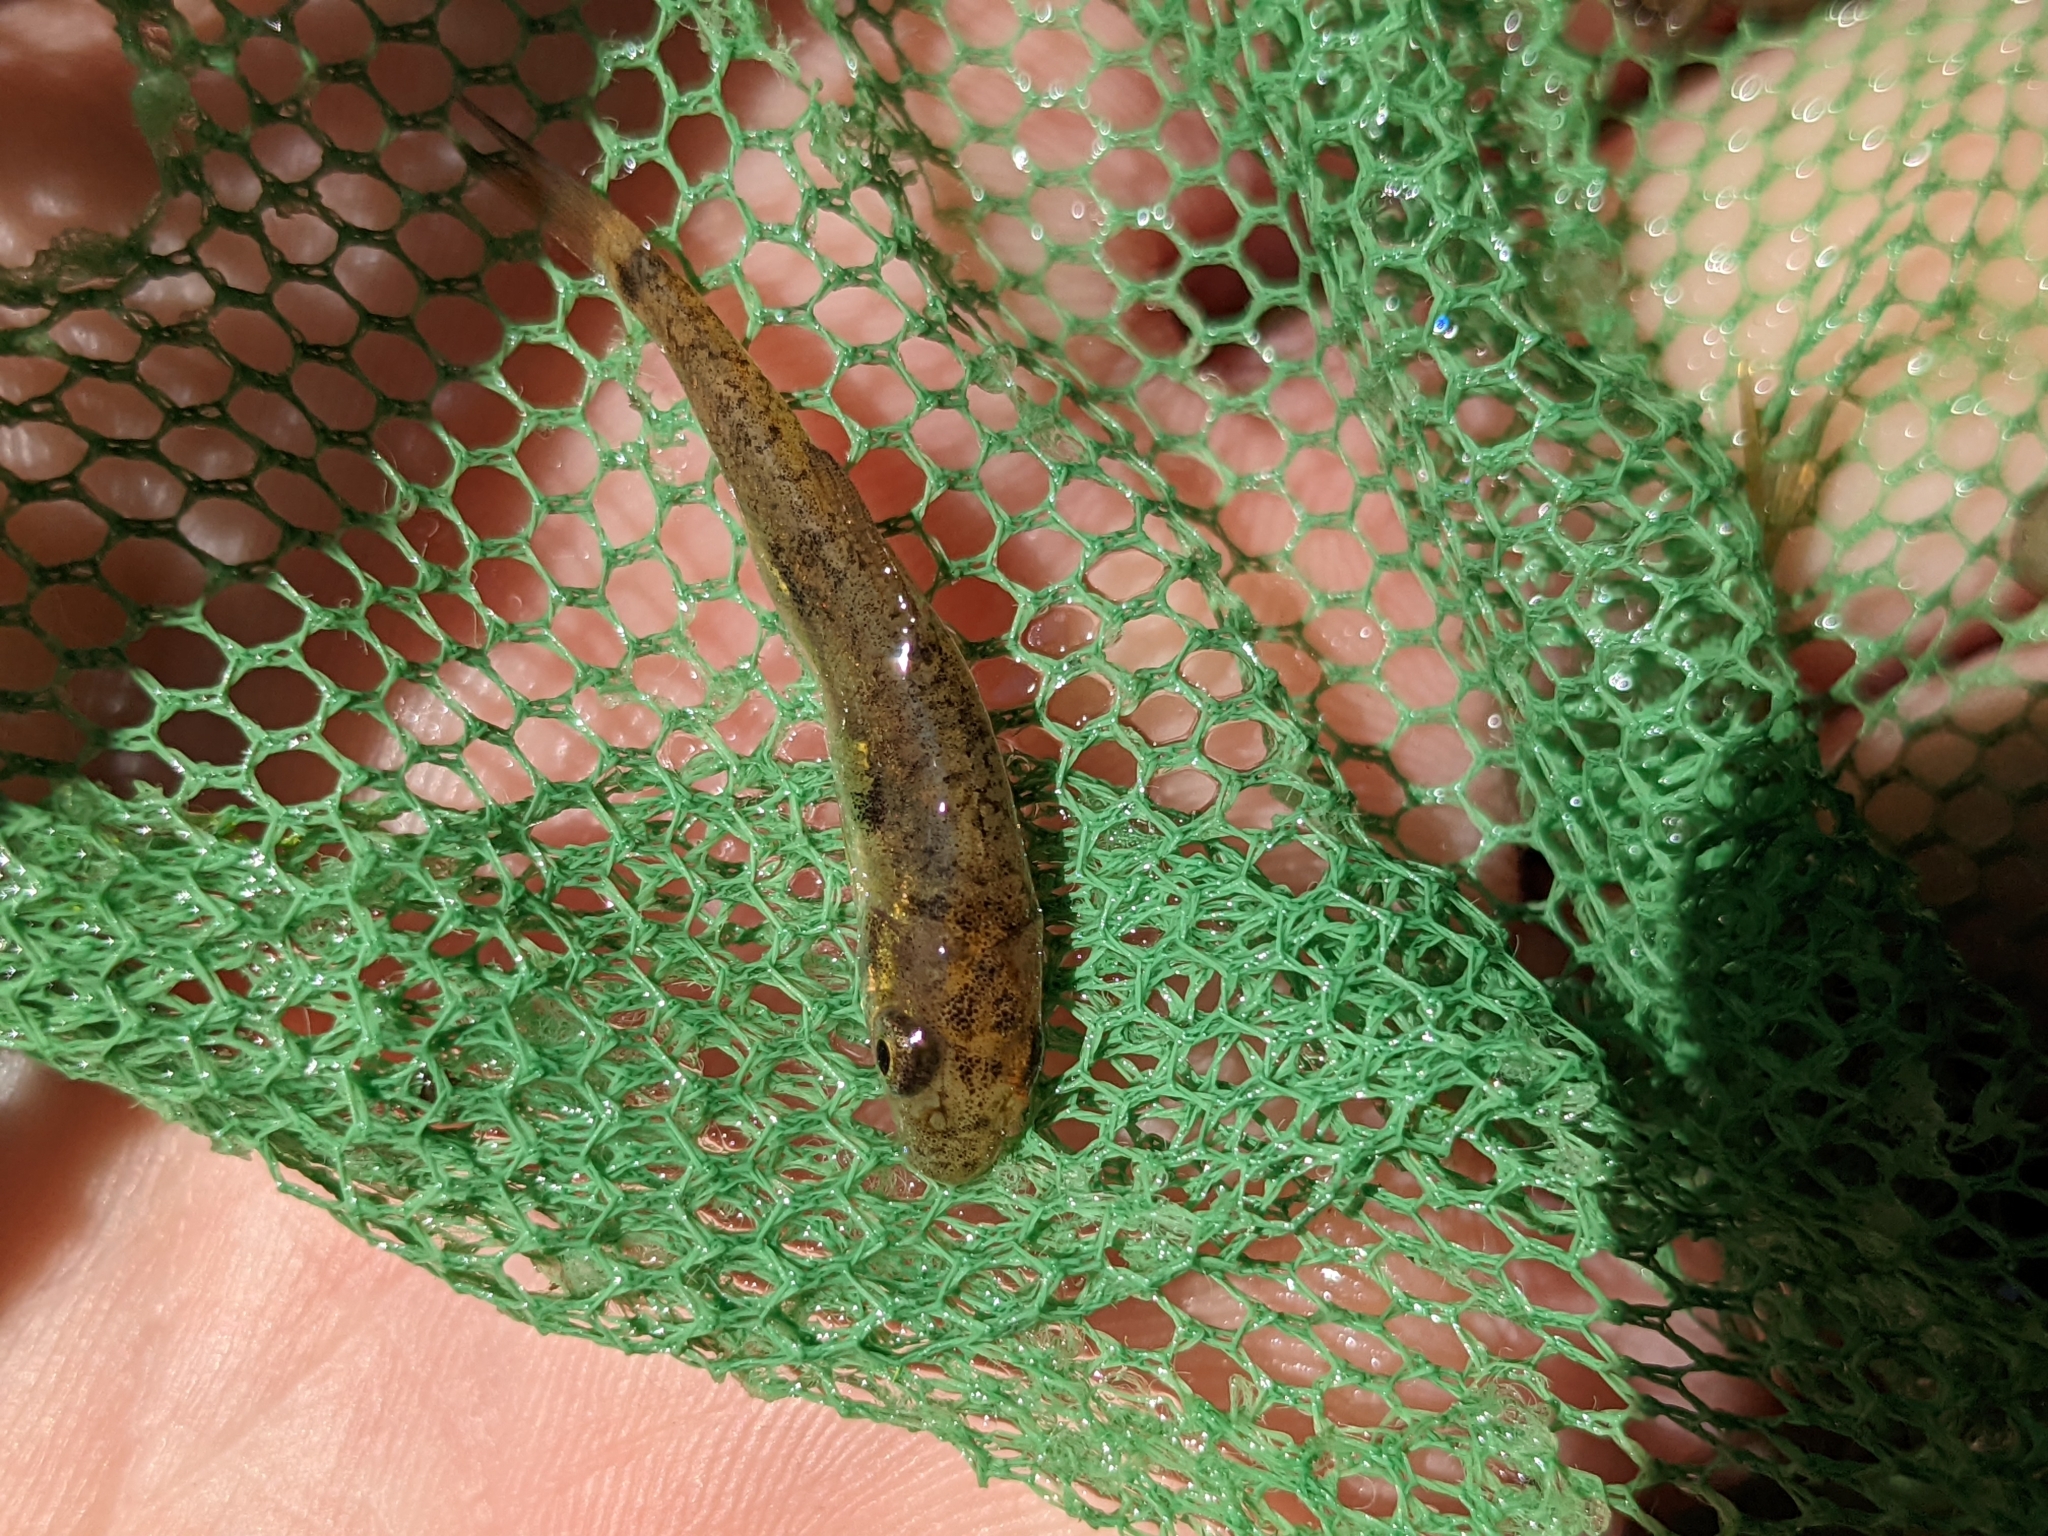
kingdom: Animalia
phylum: Chordata
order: Cypriniformes
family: Catostomidae
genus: Catostomus
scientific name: Catostomus commersonii
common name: White sucker
